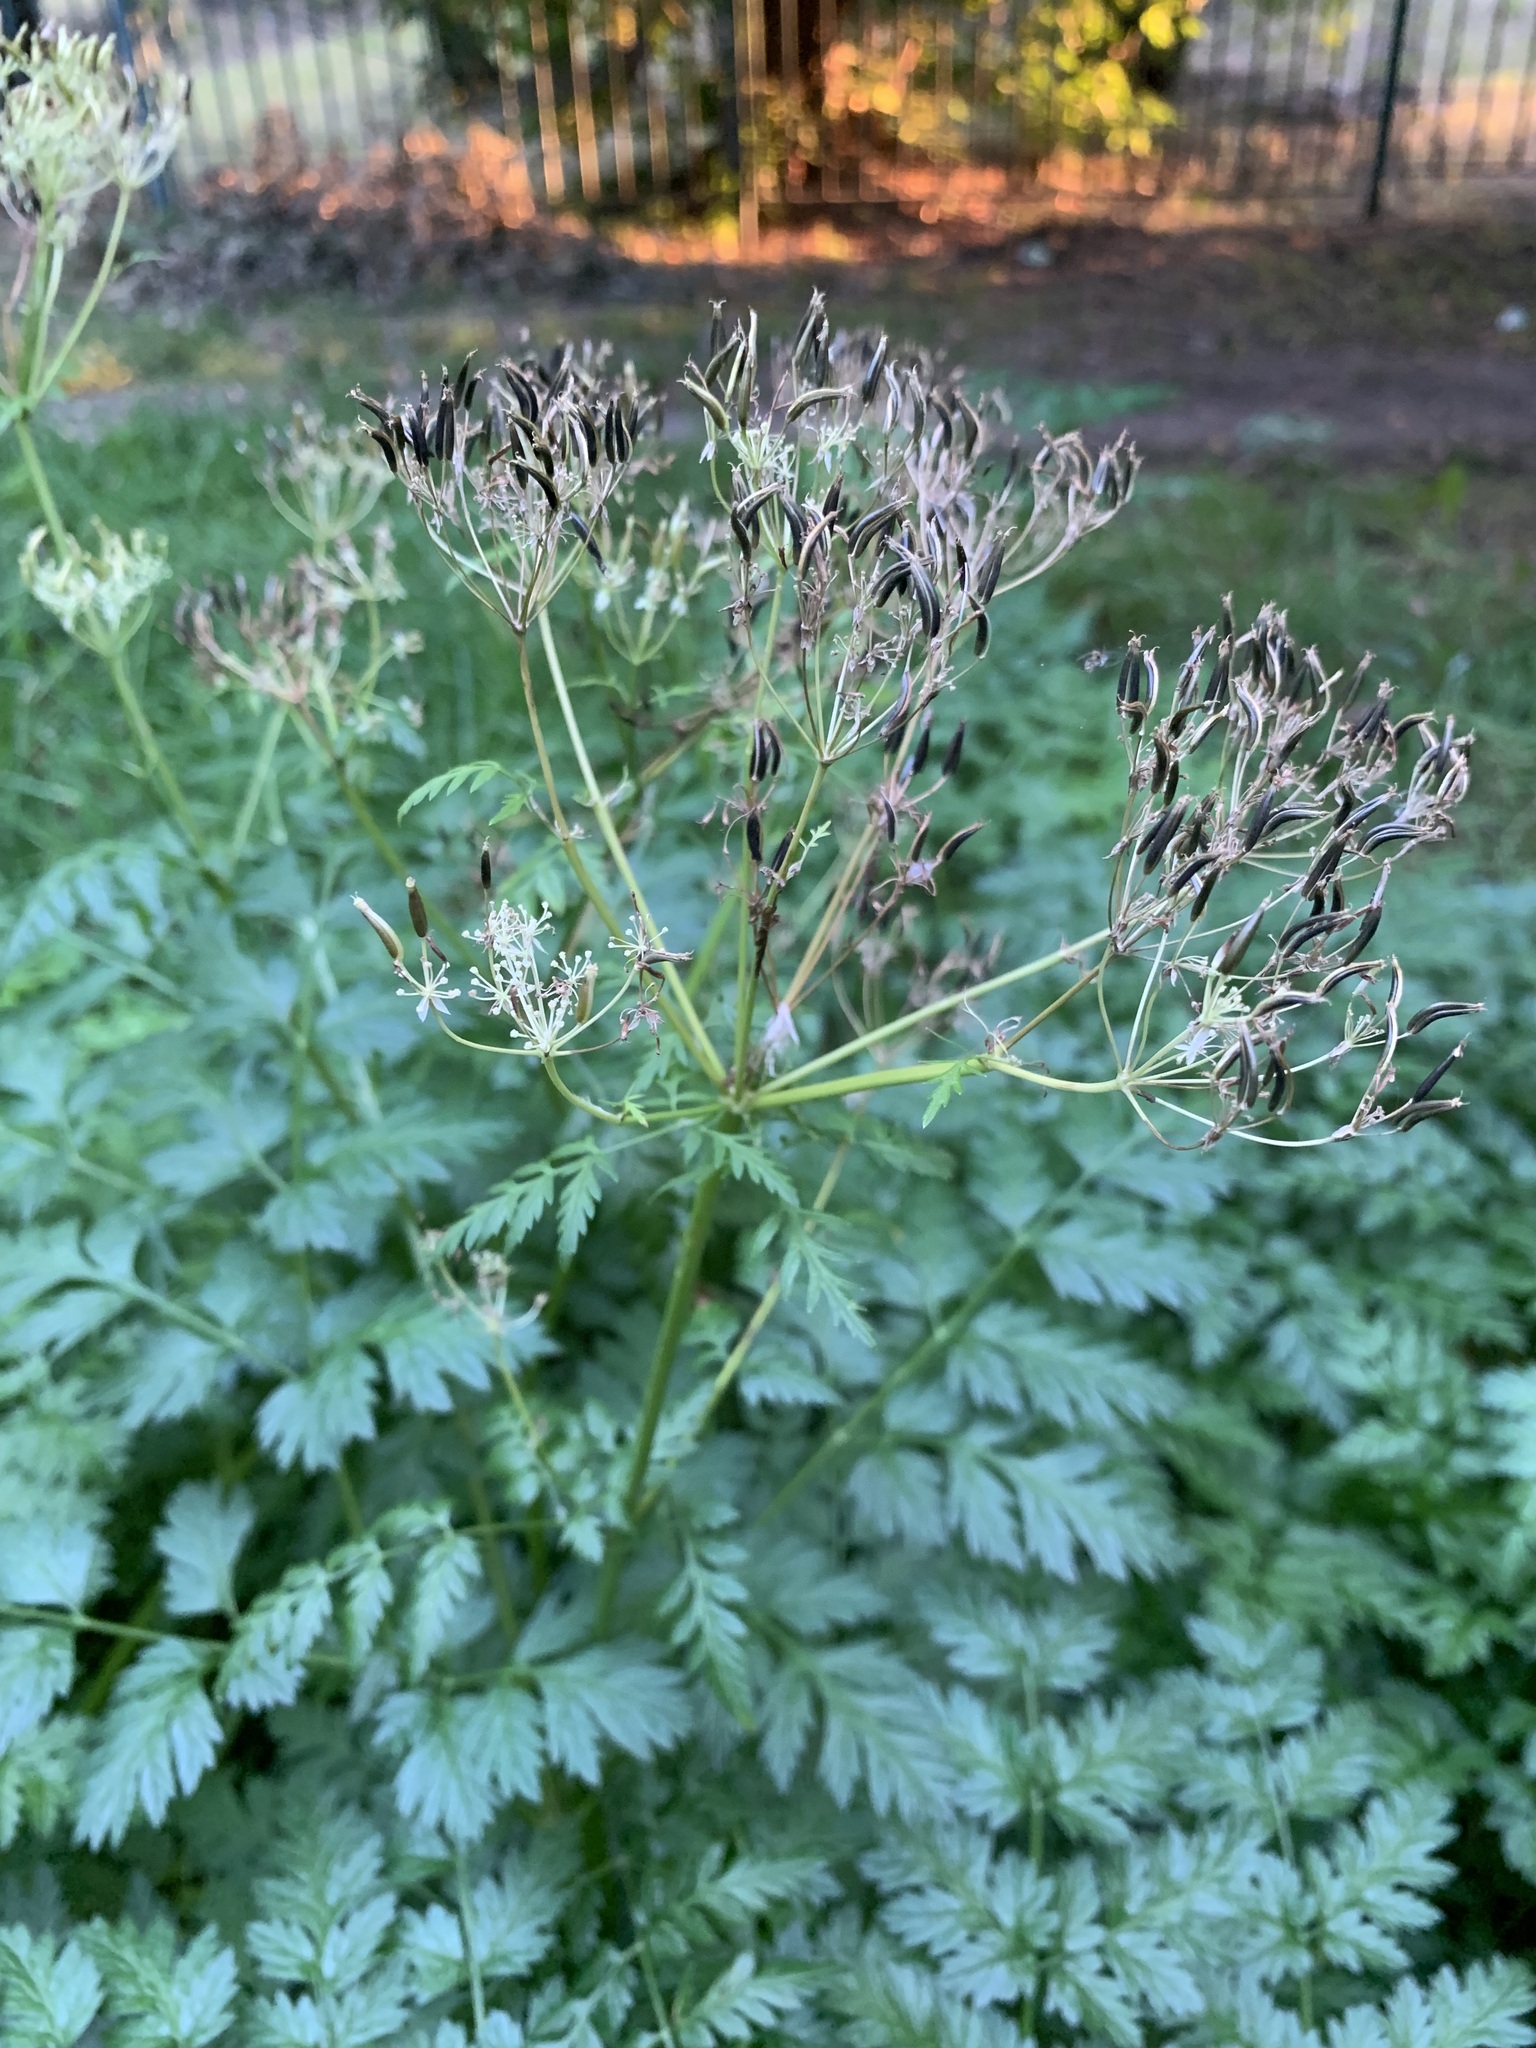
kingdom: Plantae
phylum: Tracheophyta
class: Magnoliopsida
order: Apiales
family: Apiaceae
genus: Anthriscus
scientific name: Anthriscus sylvestris
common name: Cow parsley
